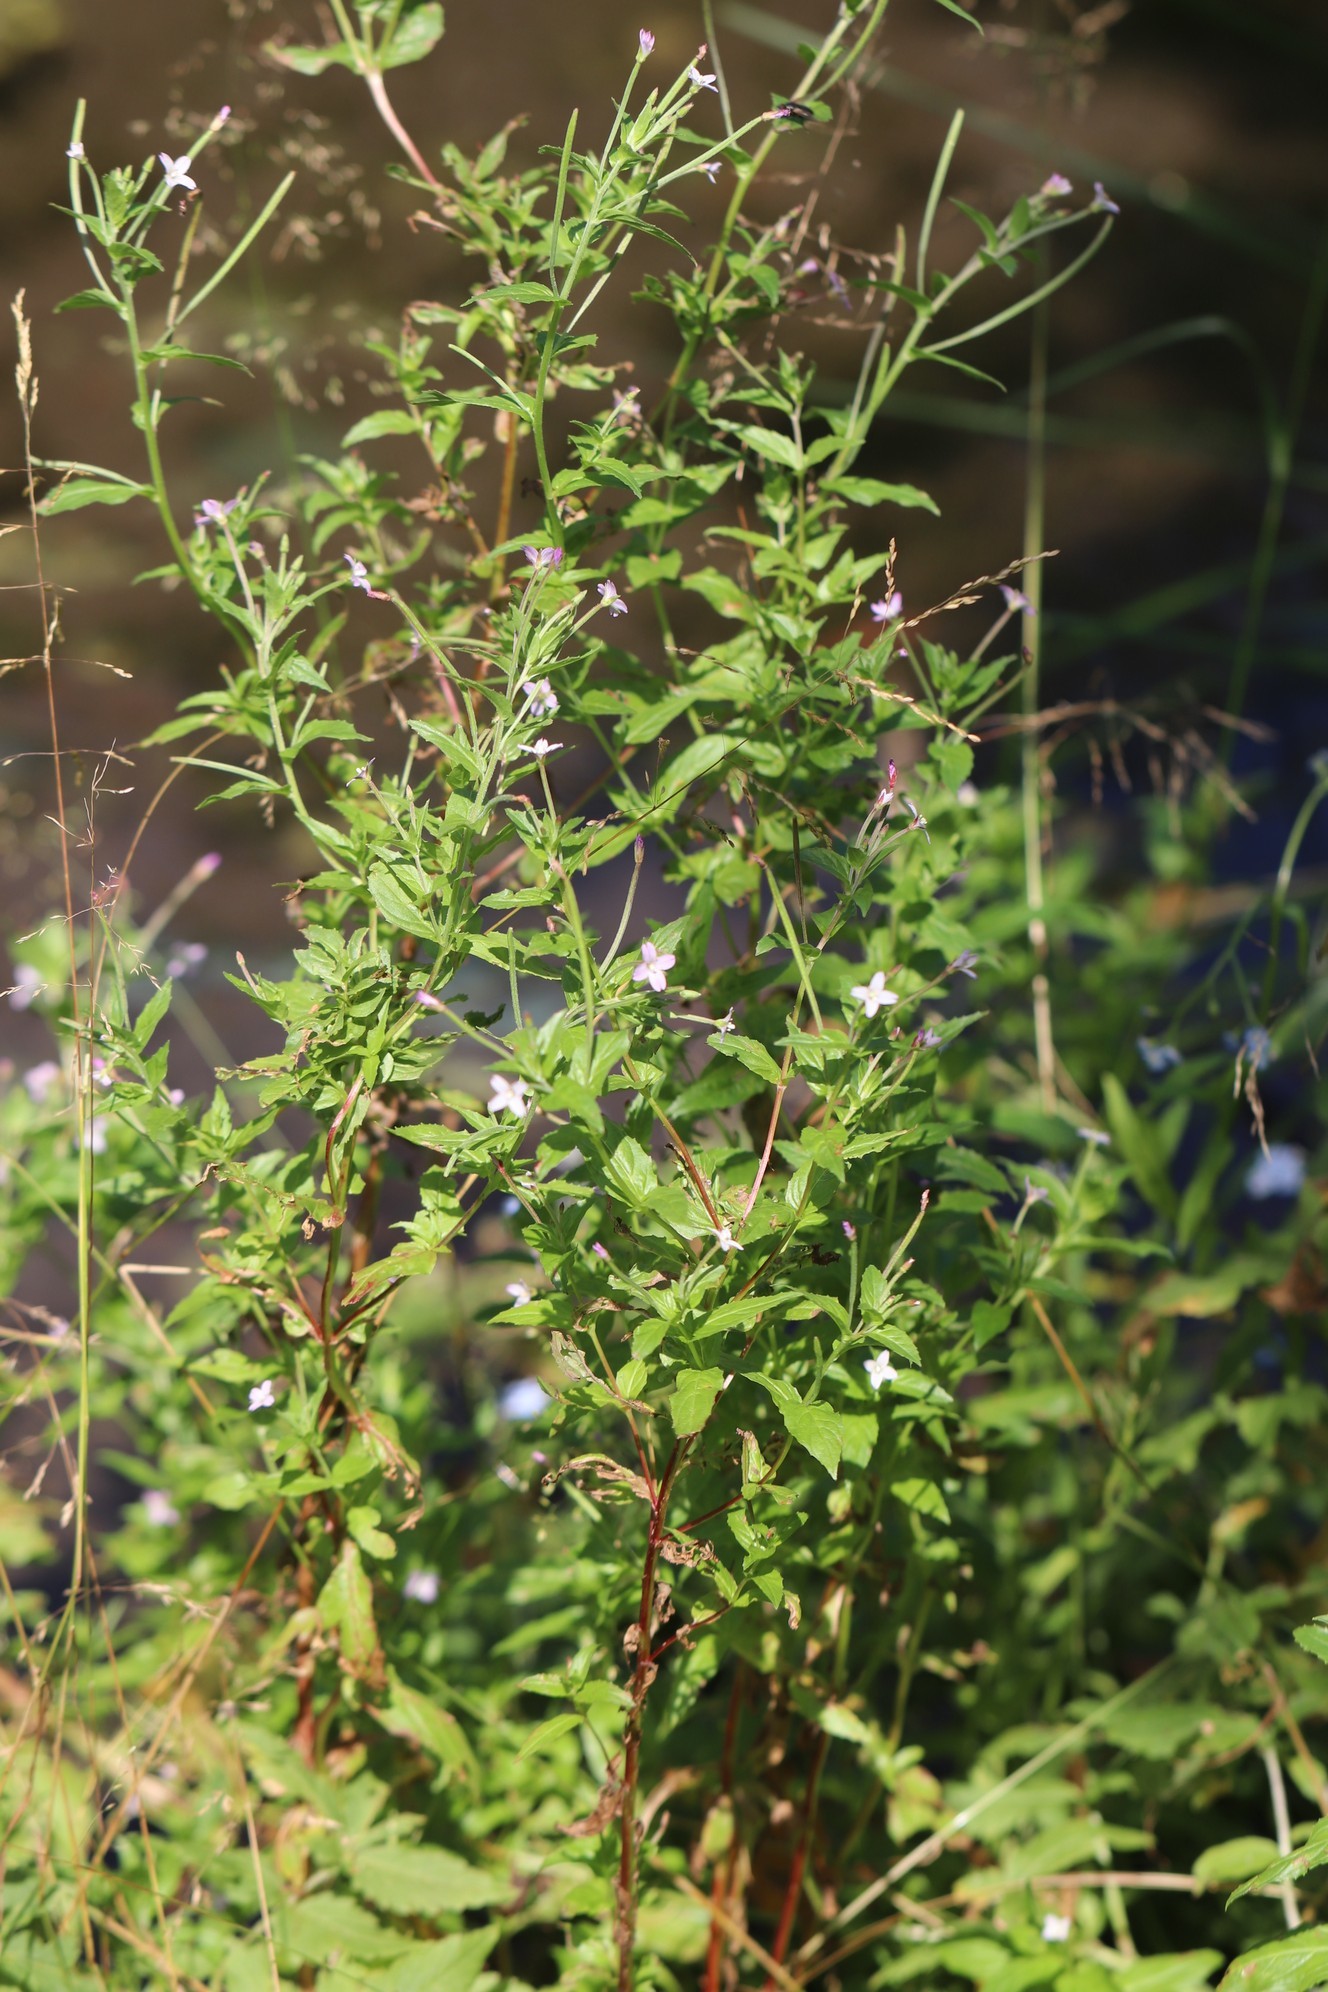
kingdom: Plantae
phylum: Tracheophyta
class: Magnoliopsida
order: Myrtales
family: Onagraceae
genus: Epilobium
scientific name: Epilobium hirsutum
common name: Great willowherb
